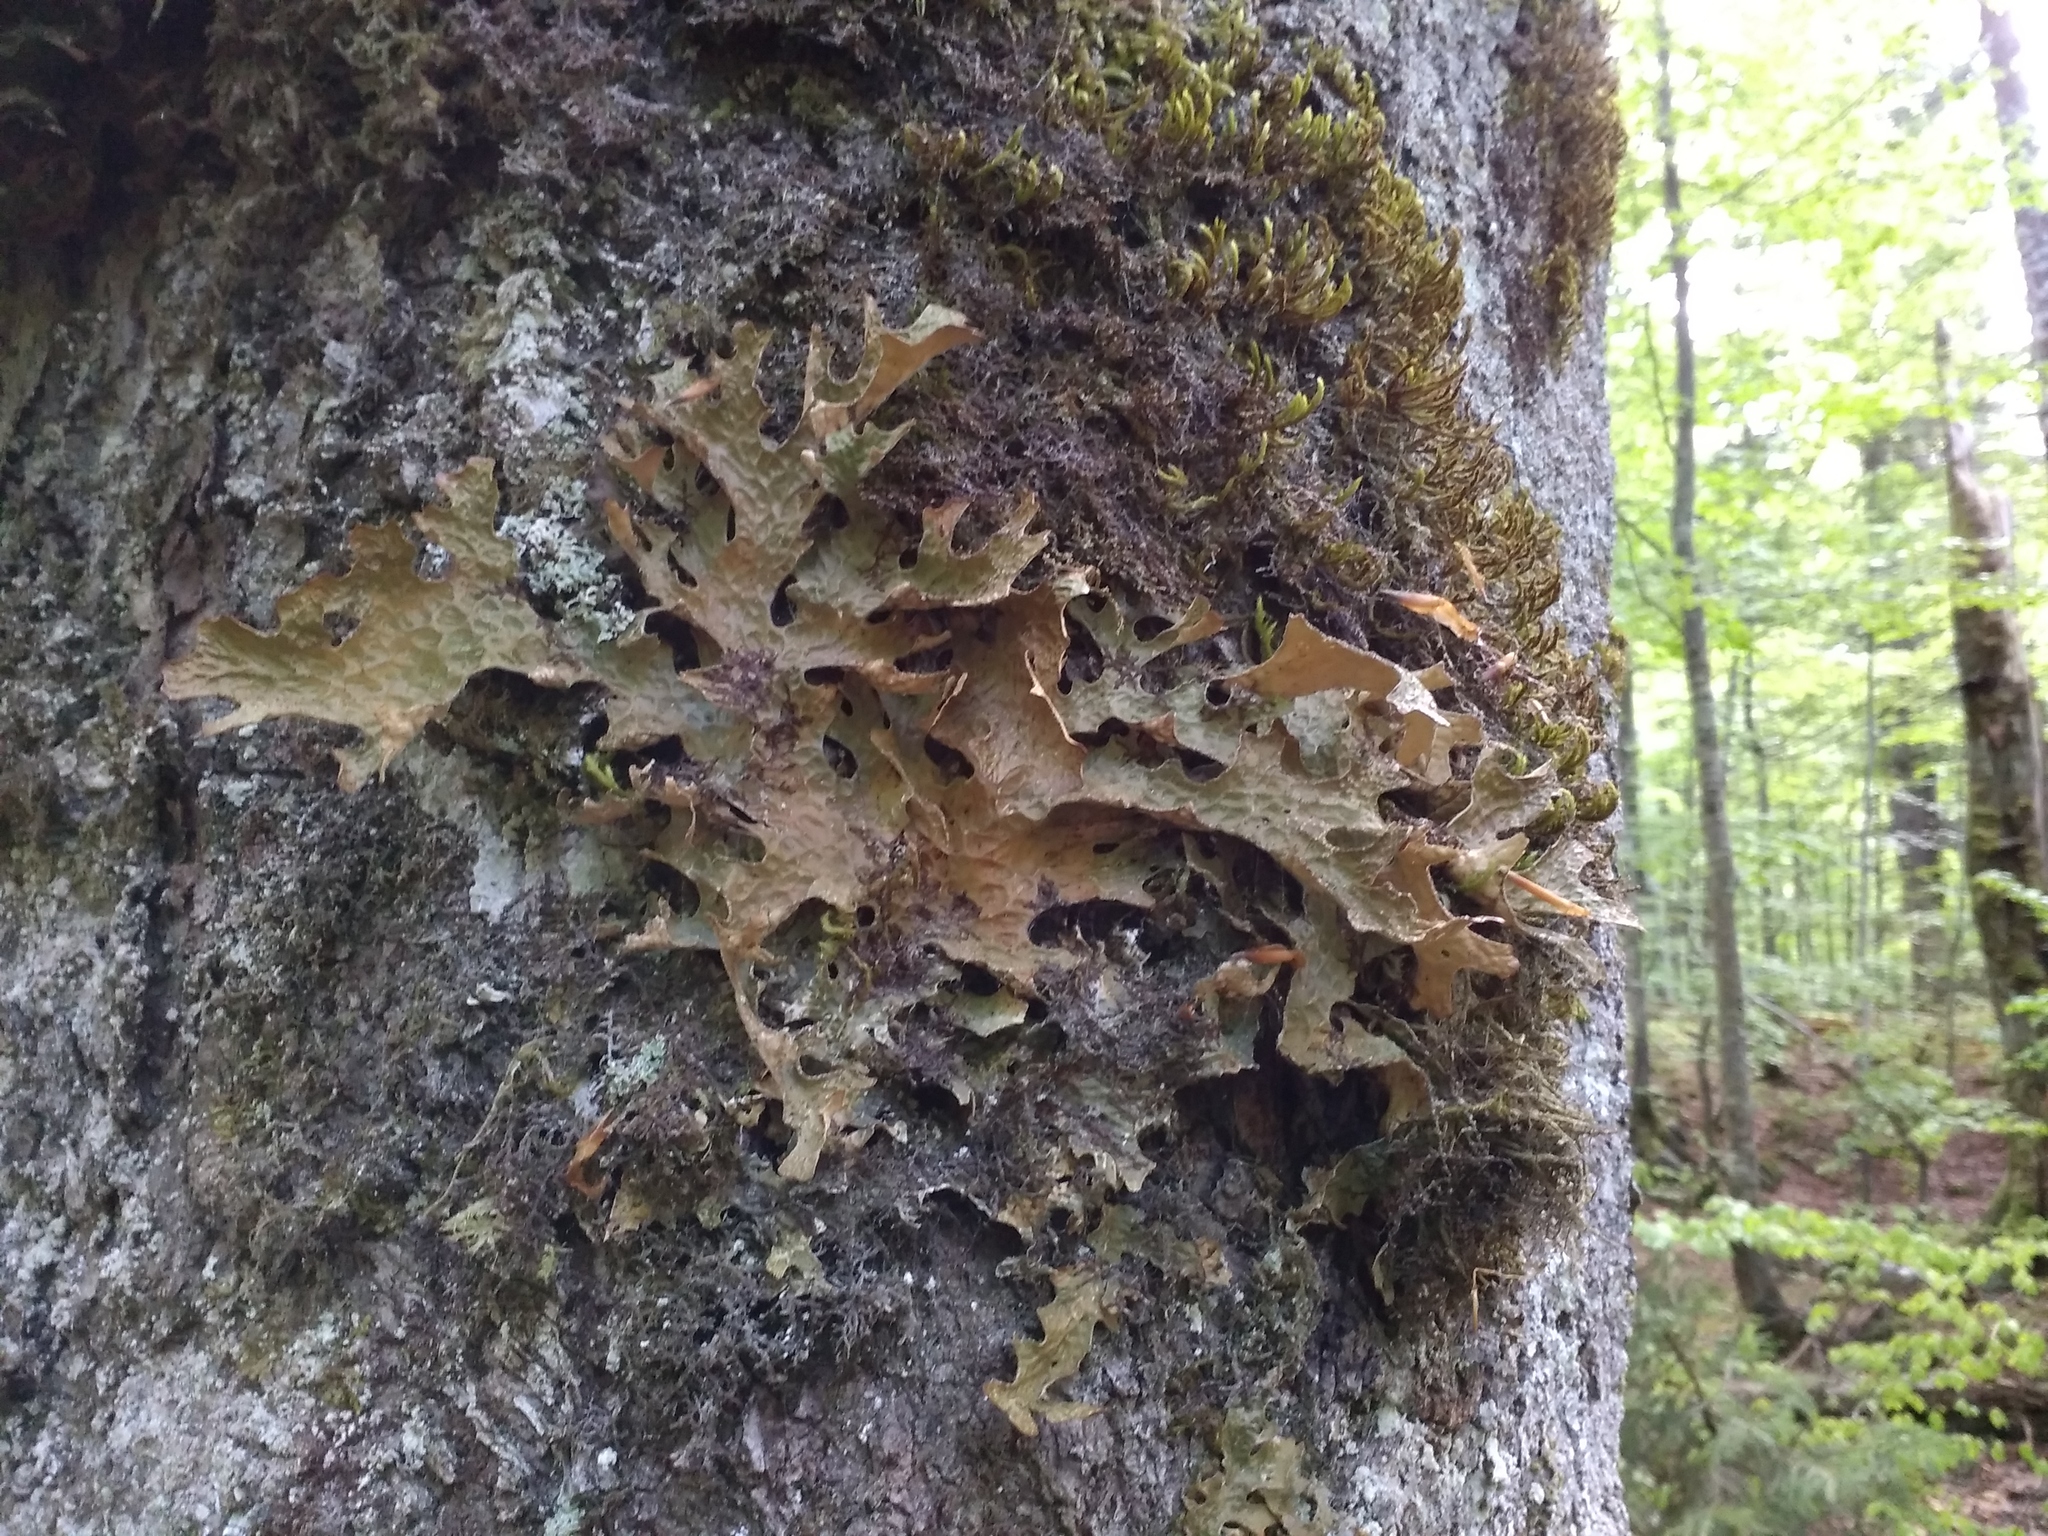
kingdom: Fungi
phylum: Ascomycota
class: Lecanoromycetes
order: Peltigerales
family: Lobariaceae
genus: Lobaria
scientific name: Lobaria pulmonaria
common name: Lungwort
